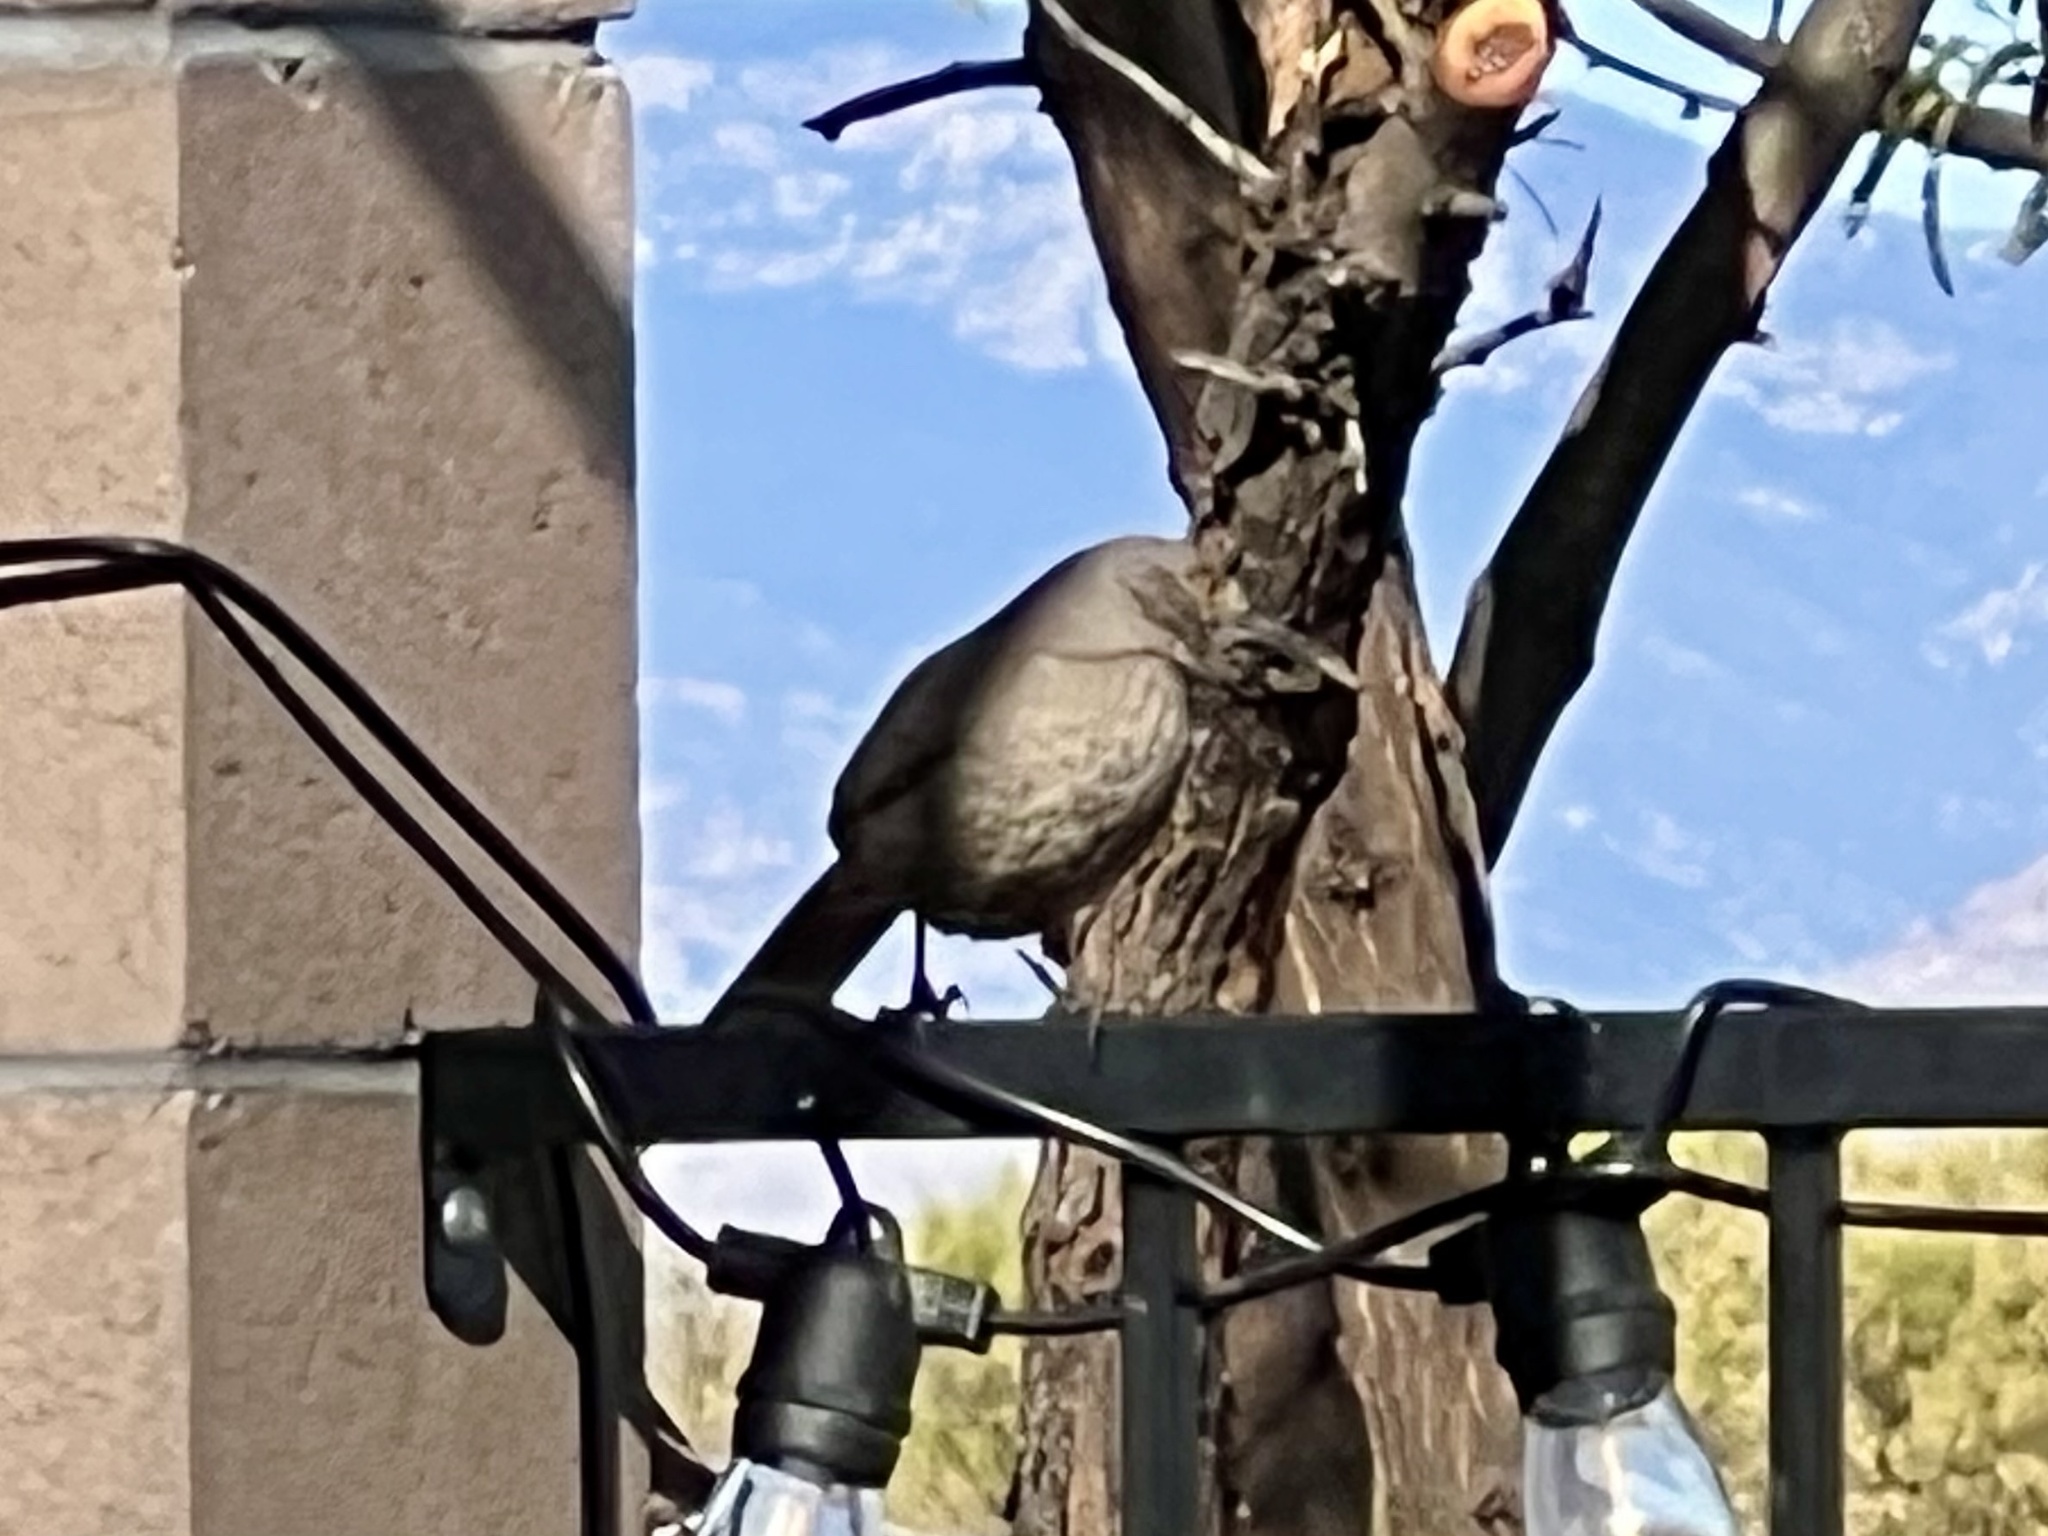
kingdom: Animalia
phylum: Chordata
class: Aves
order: Passeriformes
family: Mimidae
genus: Toxostoma
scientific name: Toxostoma curvirostre
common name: Curve-billed thrasher
